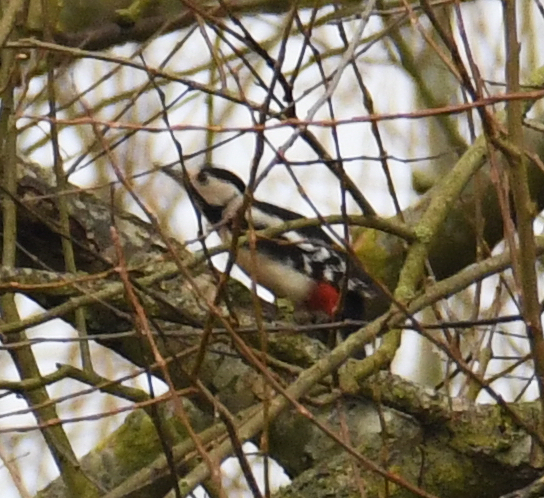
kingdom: Animalia
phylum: Chordata
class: Aves
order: Piciformes
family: Picidae
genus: Dendrocopos
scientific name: Dendrocopos major
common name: Great spotted woodpecker
